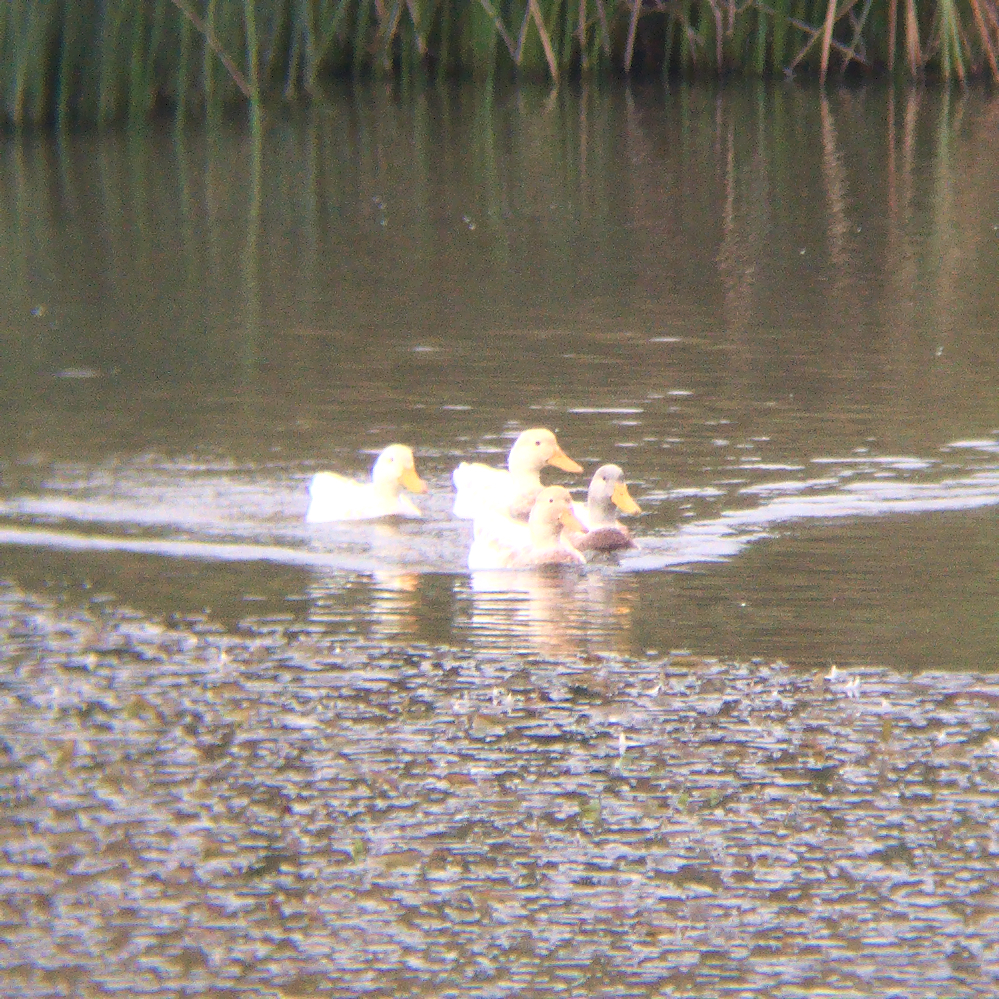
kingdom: Animalia
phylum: Chordata
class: Aves
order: Anseriformes
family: Anatidae
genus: Anas
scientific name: Anas platyrhynchos
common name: Mallard
